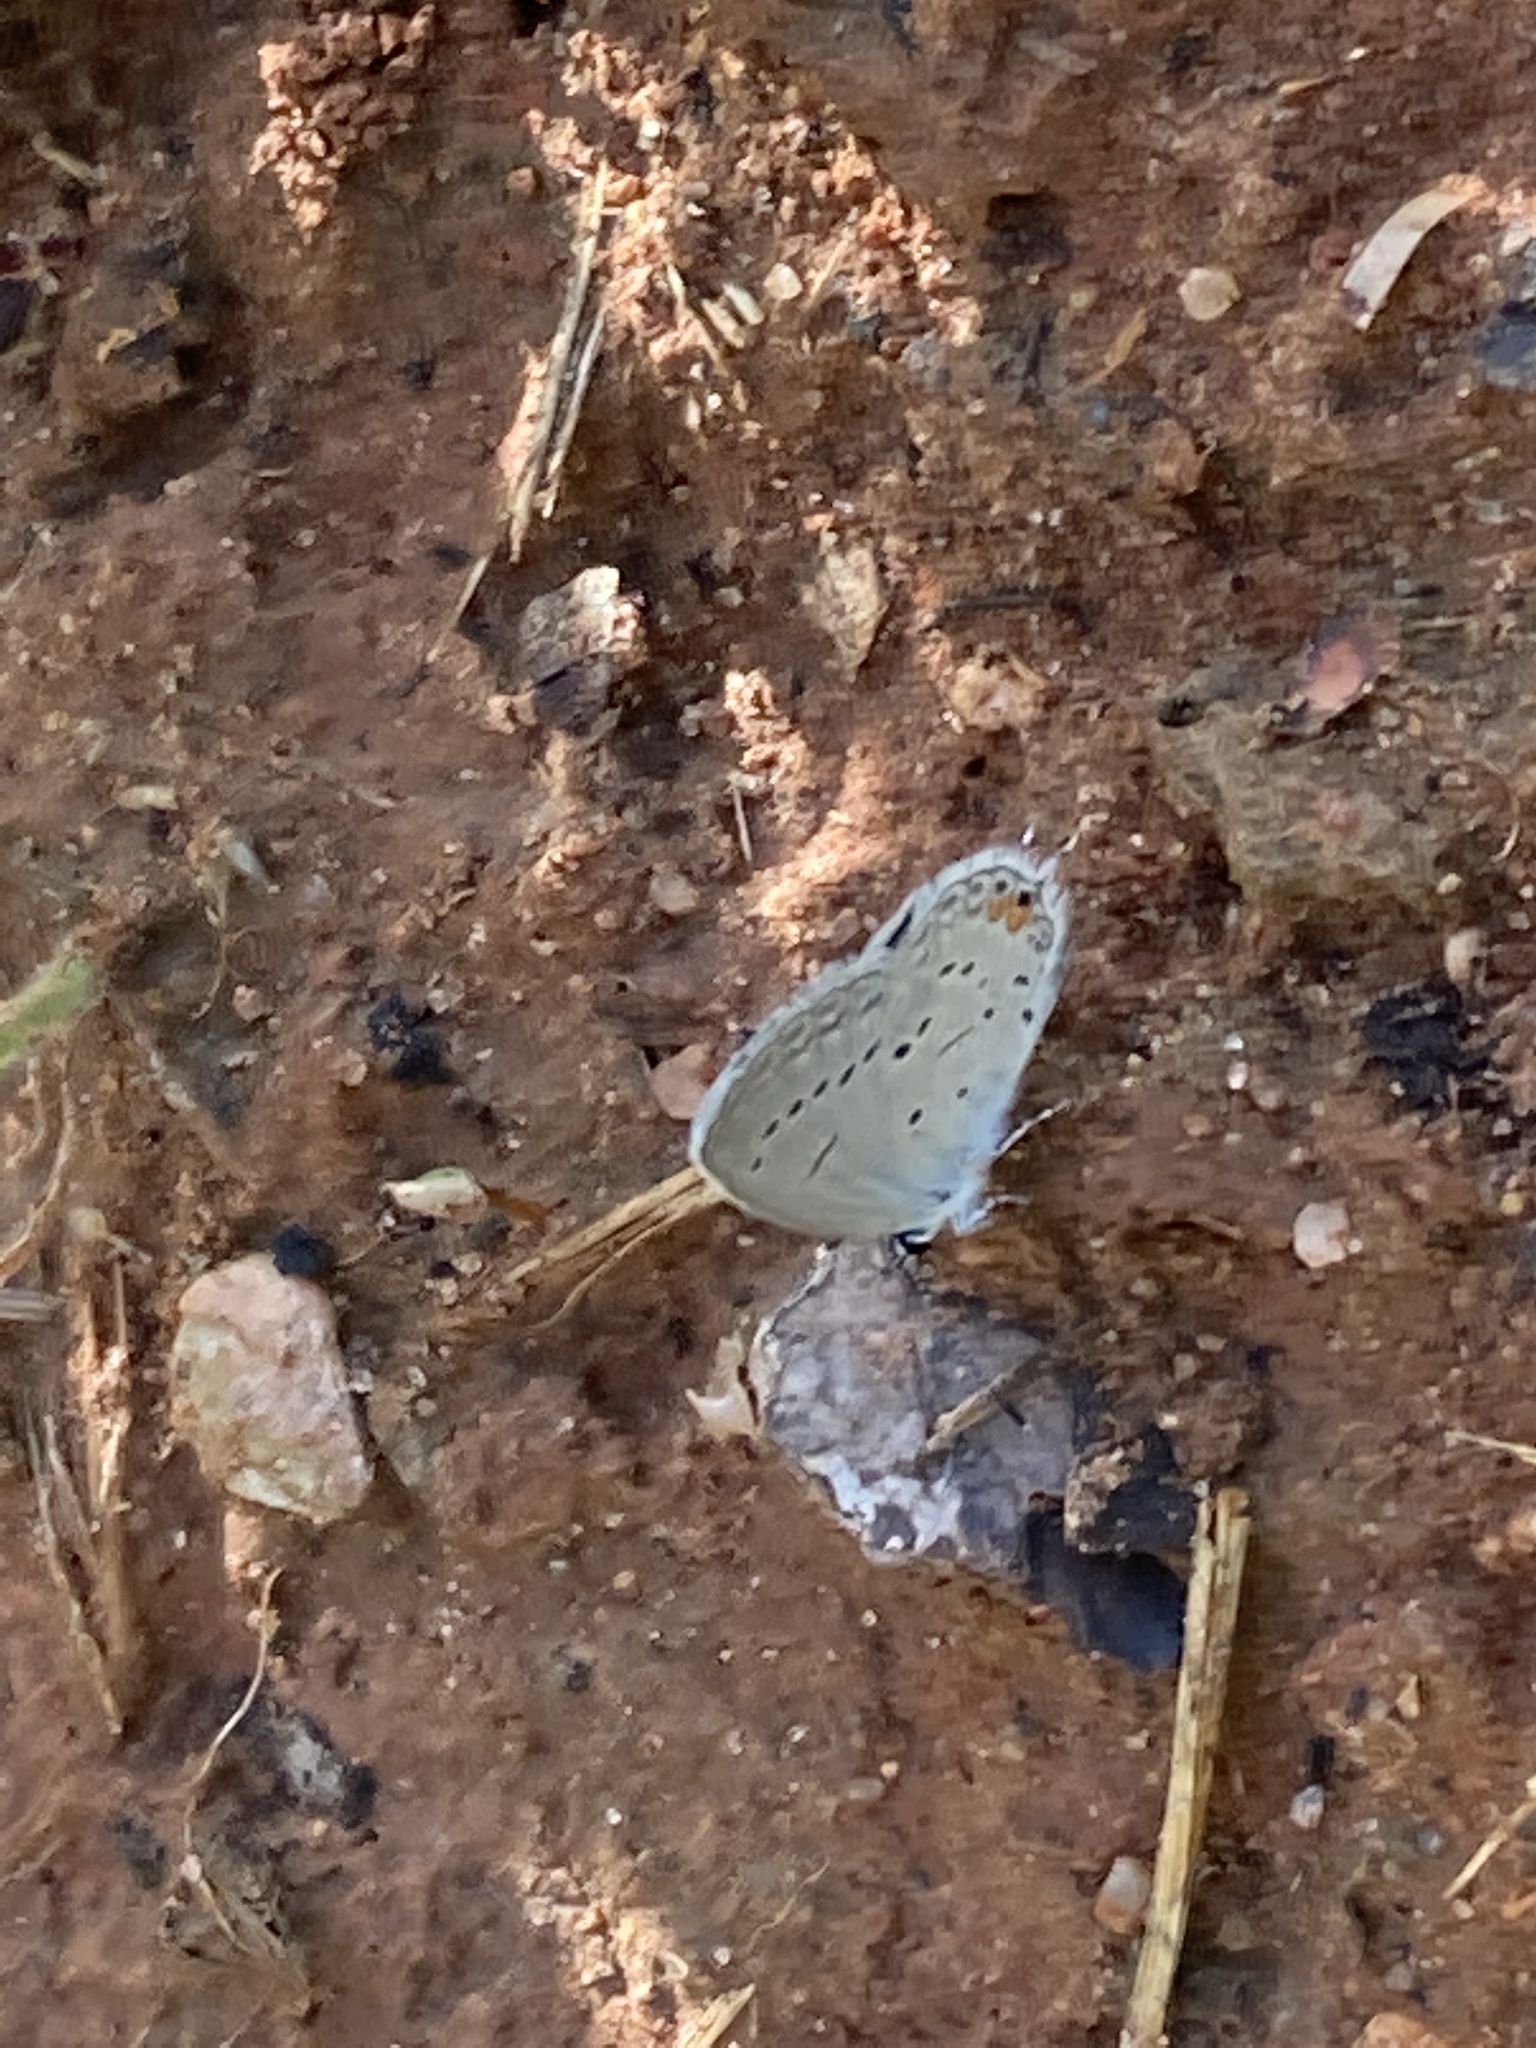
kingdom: Animalia
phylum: Arthropoda
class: Insecta
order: Lepidoptera
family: Lycaenidae
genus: Elkalyce
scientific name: Elkalyce comyntas
